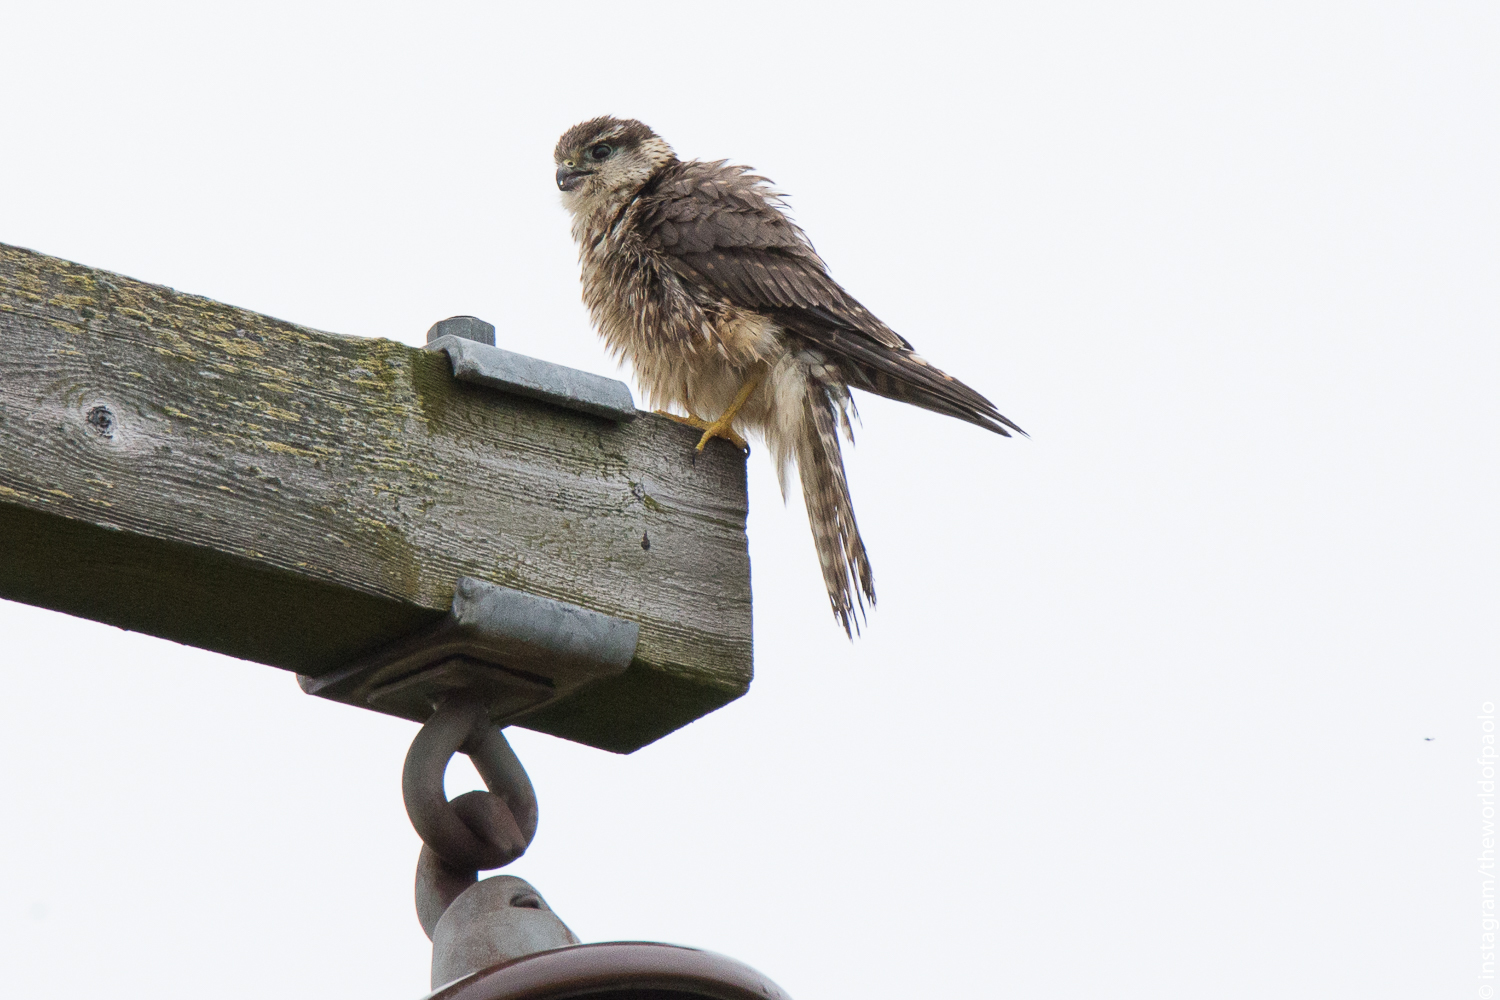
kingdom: Animalia
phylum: Chordata
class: Aves
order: Falconiformes
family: Falconidae
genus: Falco
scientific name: Falco columbarius
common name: Merlin
